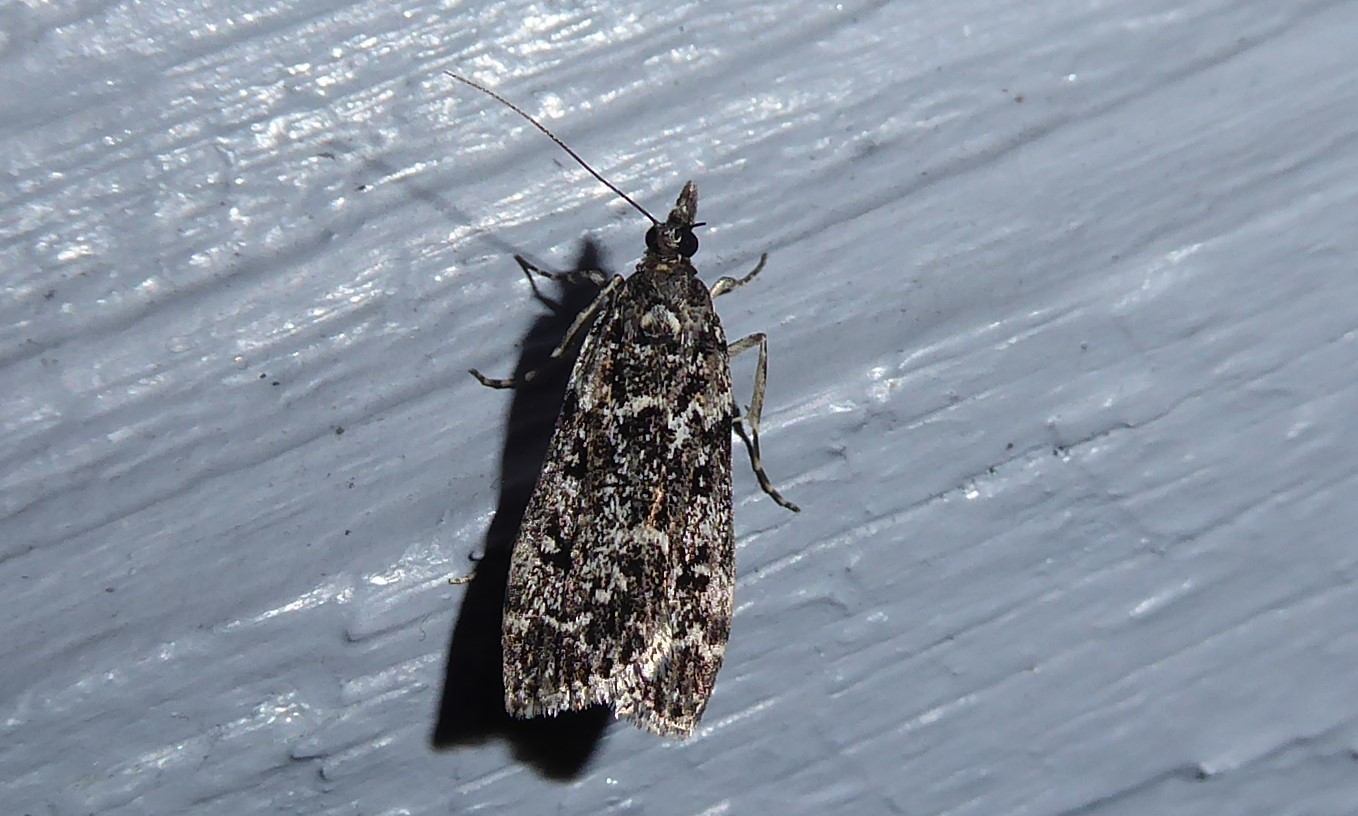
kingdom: Animalia
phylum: Arthropoda
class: Insecta
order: Lepidoptera
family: Crambidae
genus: Eudonia
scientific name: Eudonia philerga
